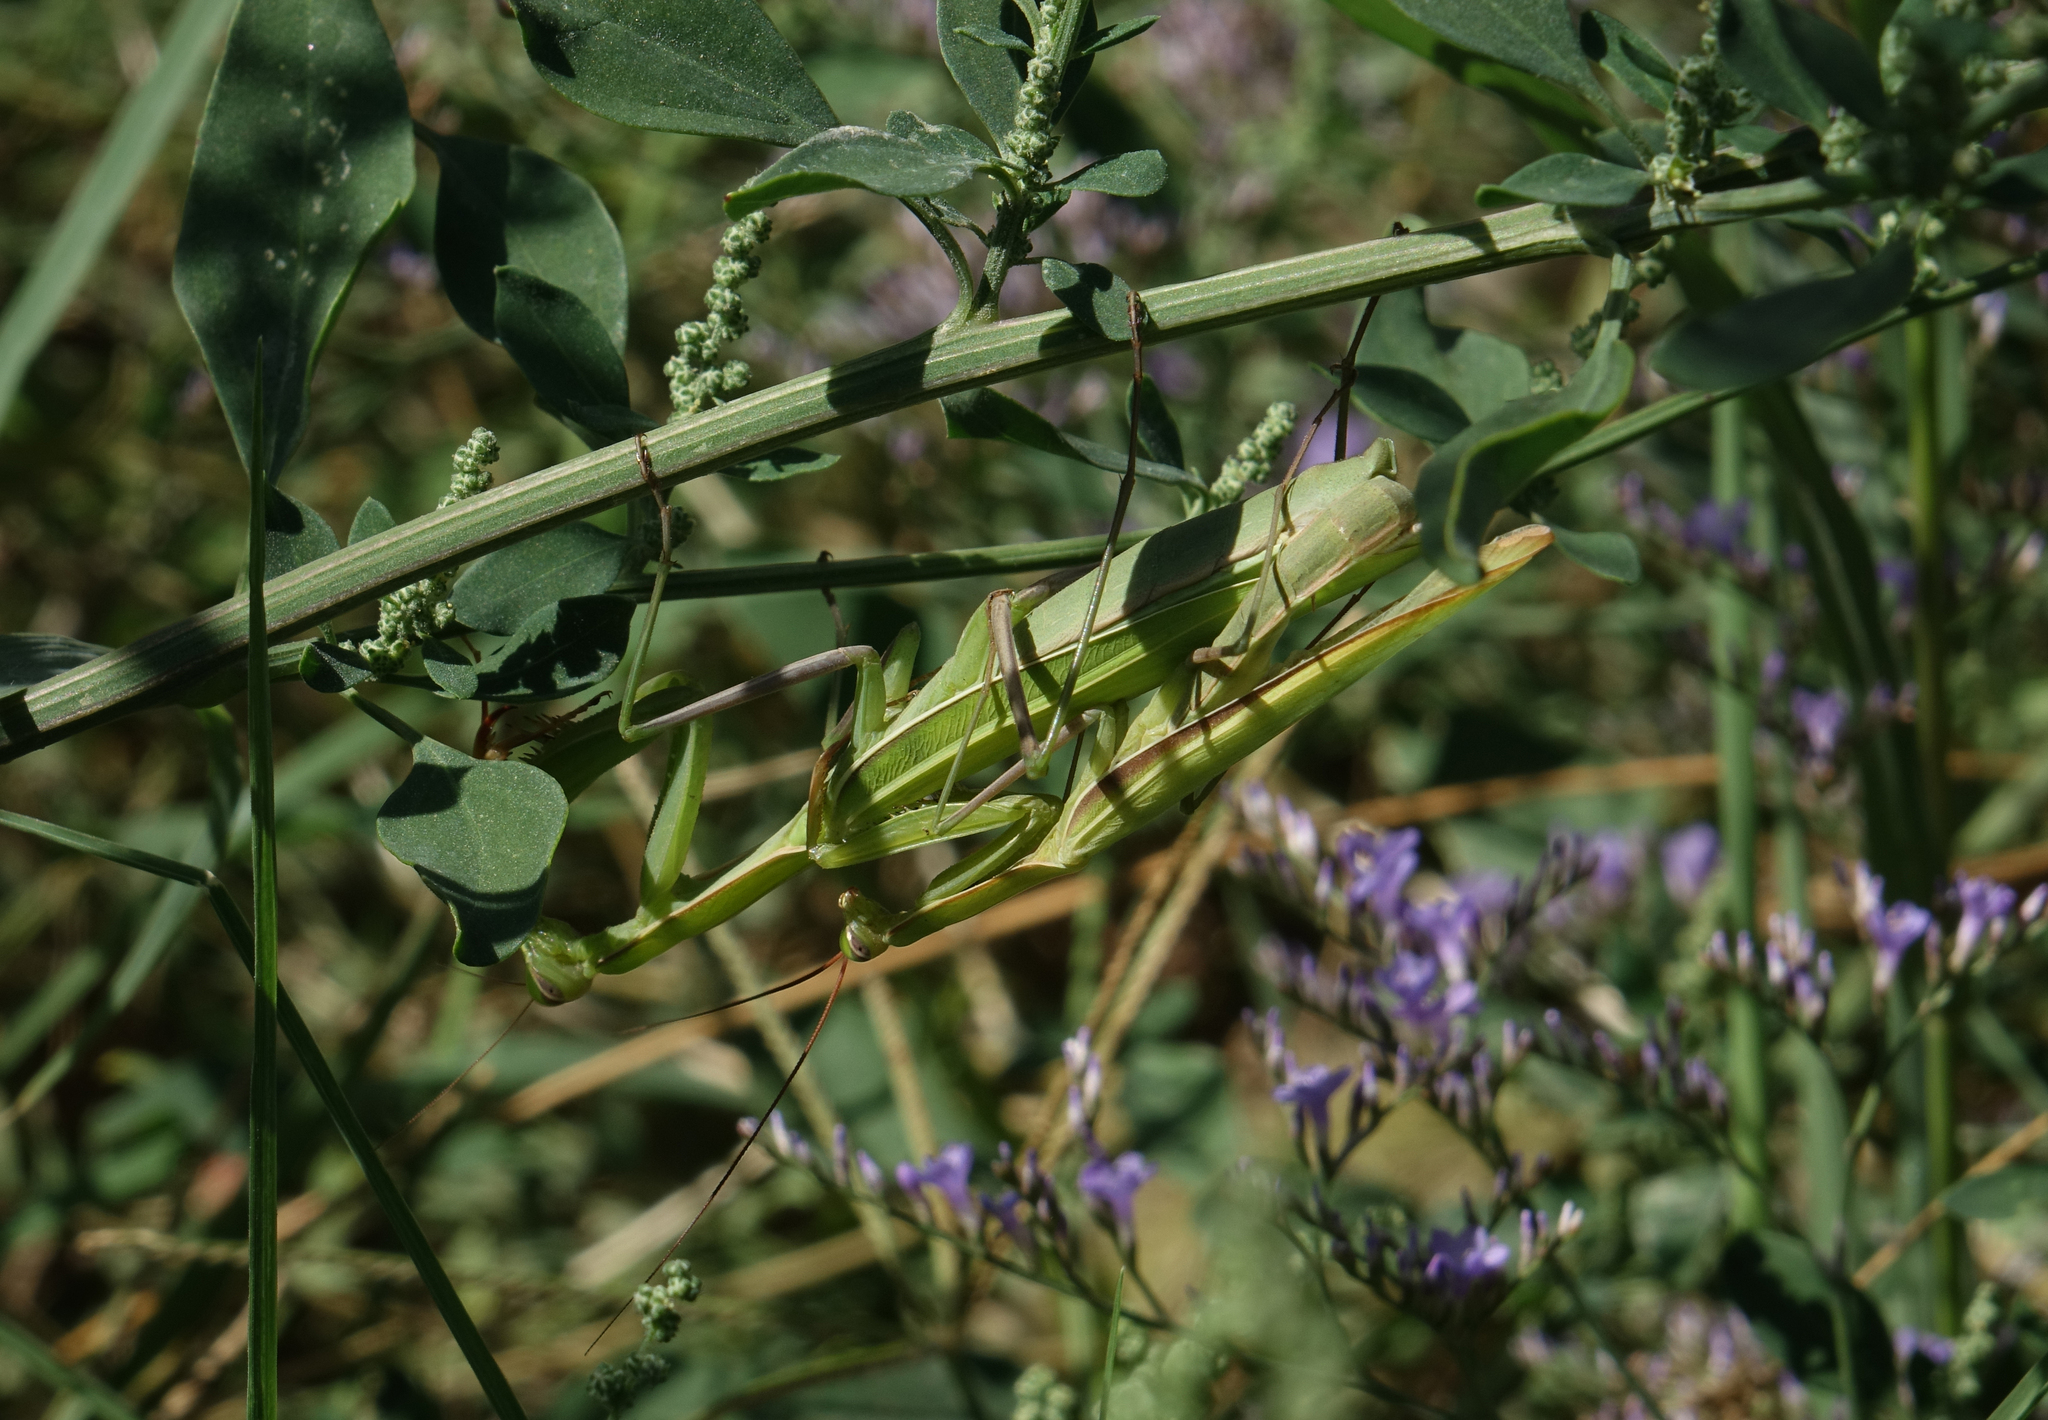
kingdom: Plantae
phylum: Tracheophyta
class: Magnoliopsida
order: Caryophyllales
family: Amaranthaceae
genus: Chenopodium
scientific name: Chenopodium album
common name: Fat-hen
